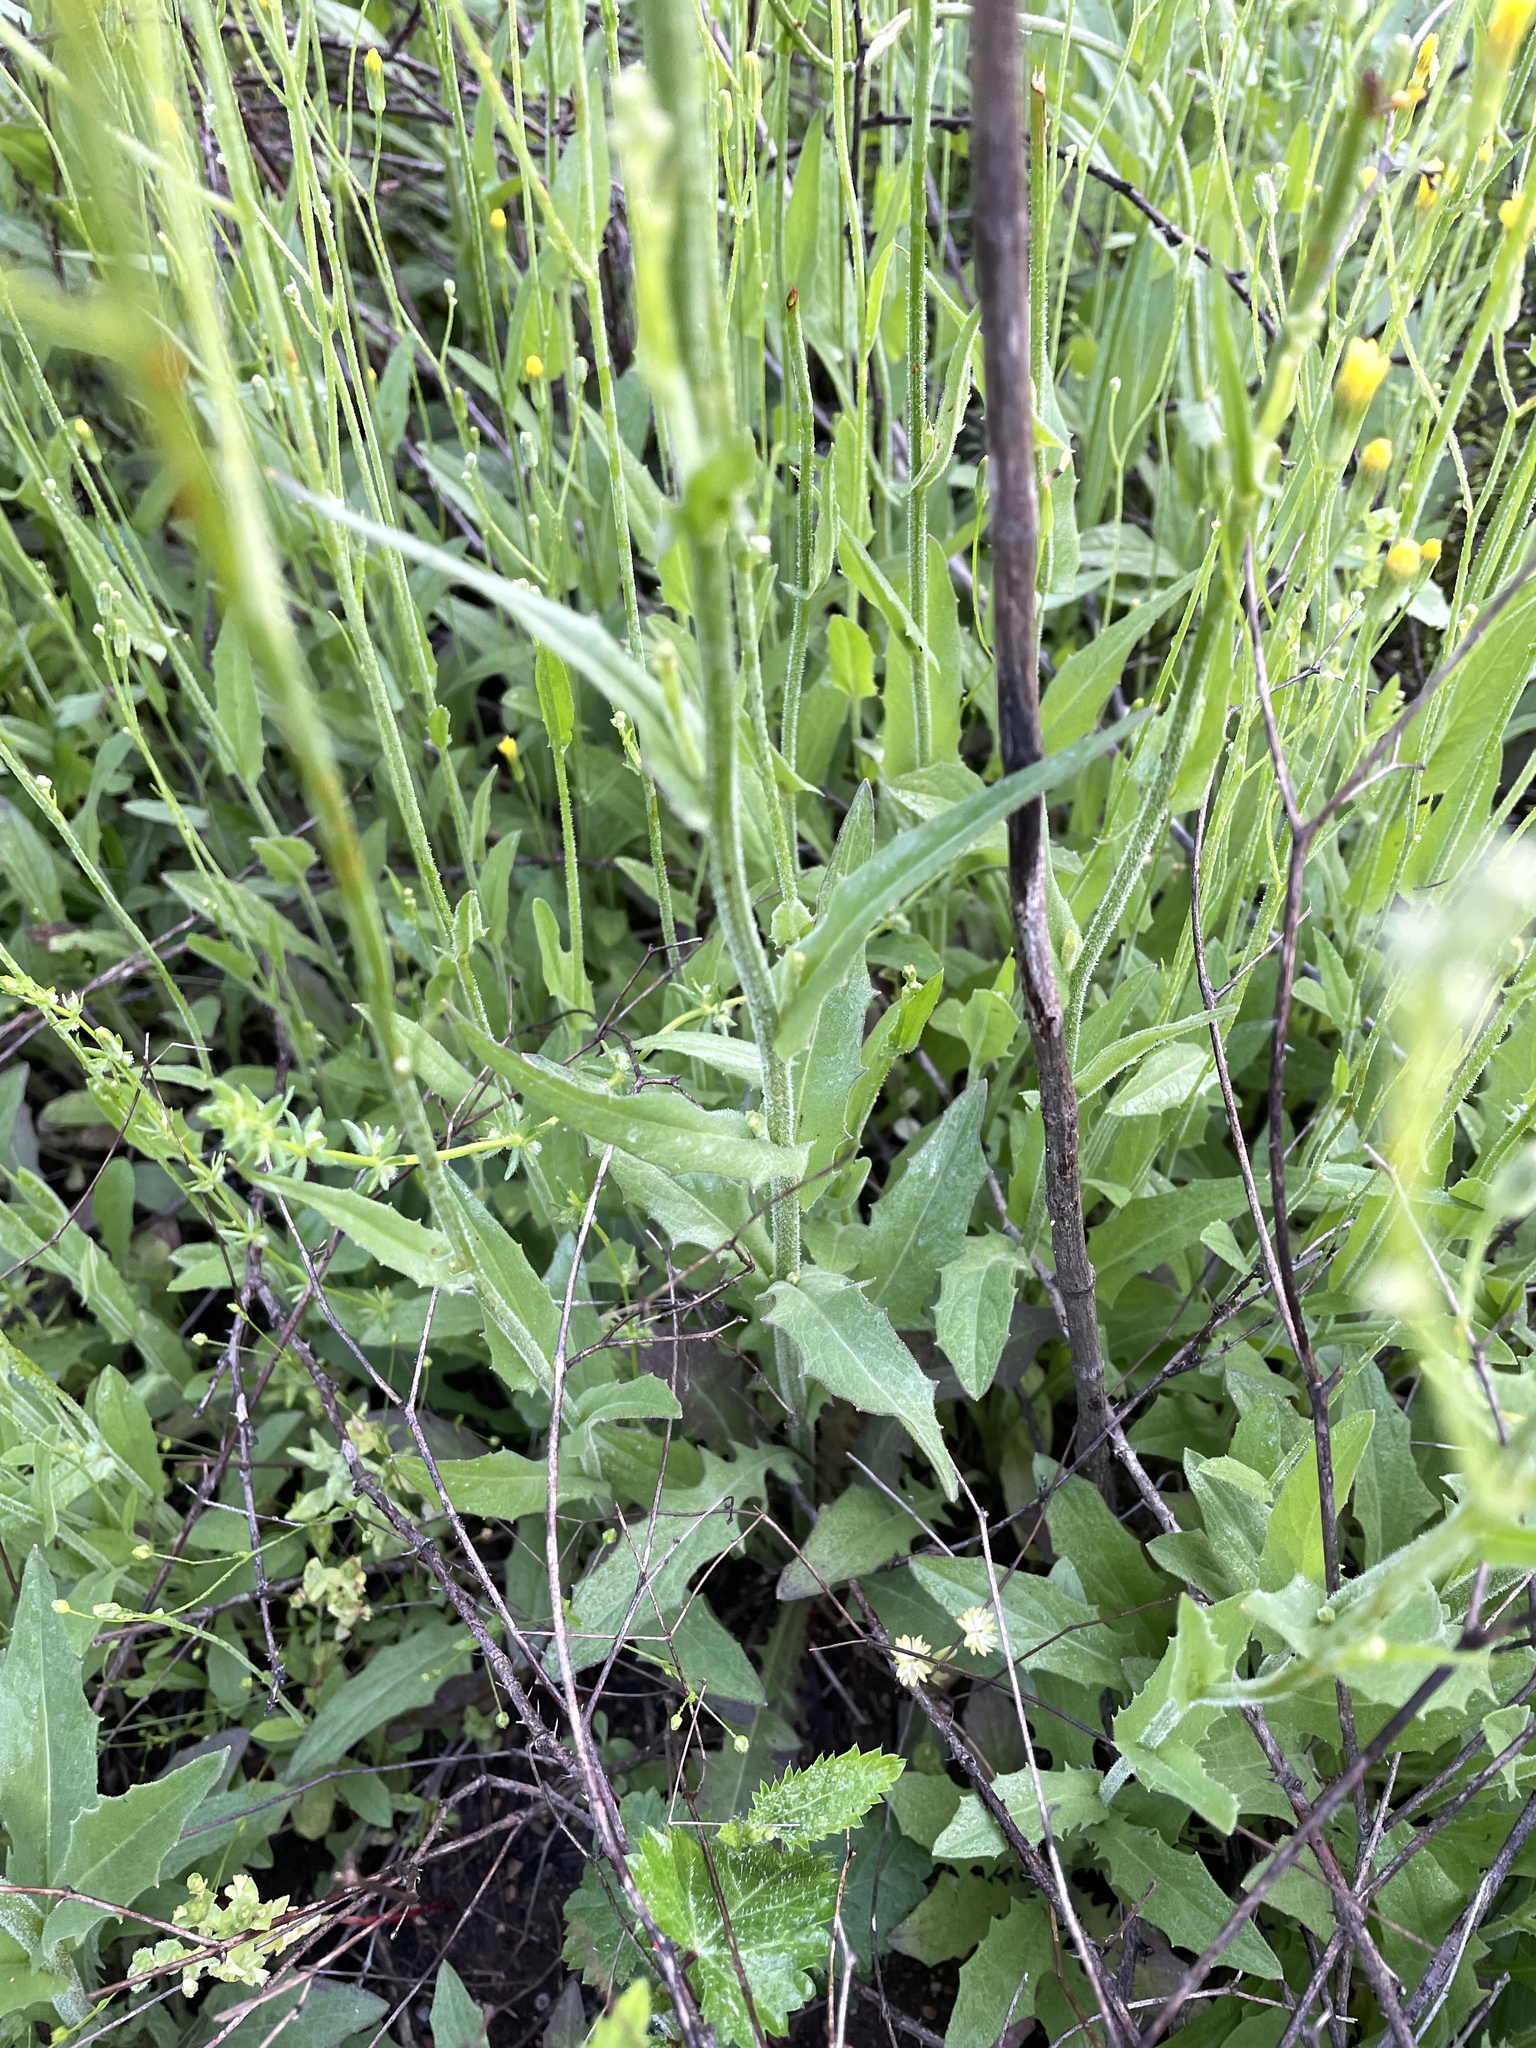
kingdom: Plantae
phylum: Tracheophyta
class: Magnoliopsida
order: Asterales
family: Asteraceae
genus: Crepis
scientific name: Crepis pulchra
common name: Hawk's-beard
